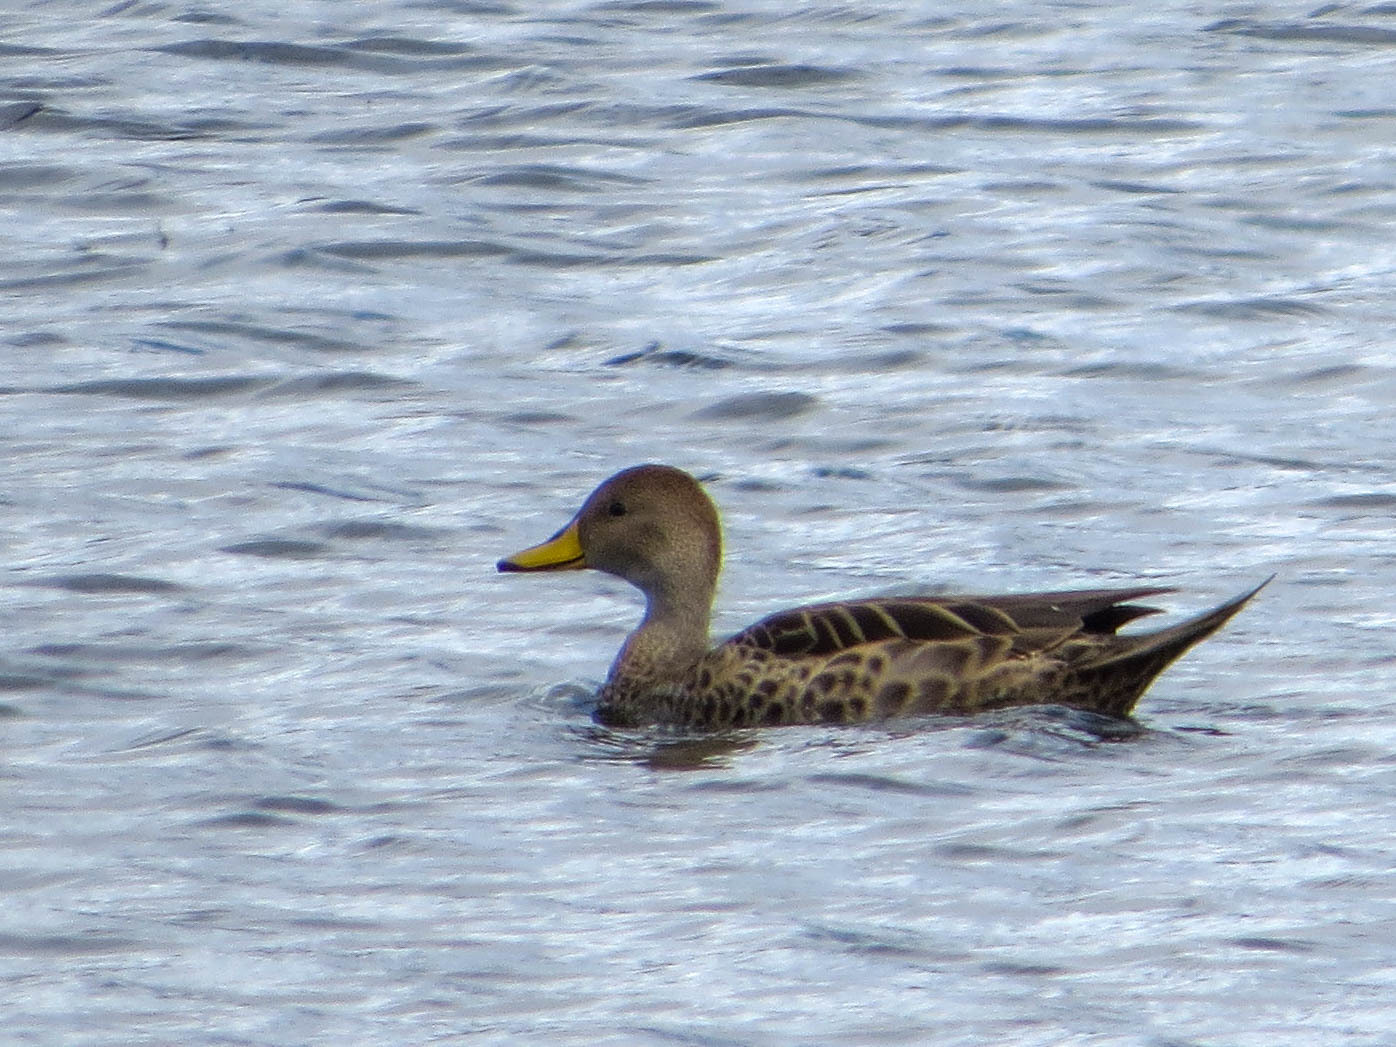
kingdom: Animalia
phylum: Chordata
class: Aves
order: Anseriformes
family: Anatidae
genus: Anas
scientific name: Anas georgica
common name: Yellow-billed pintail
